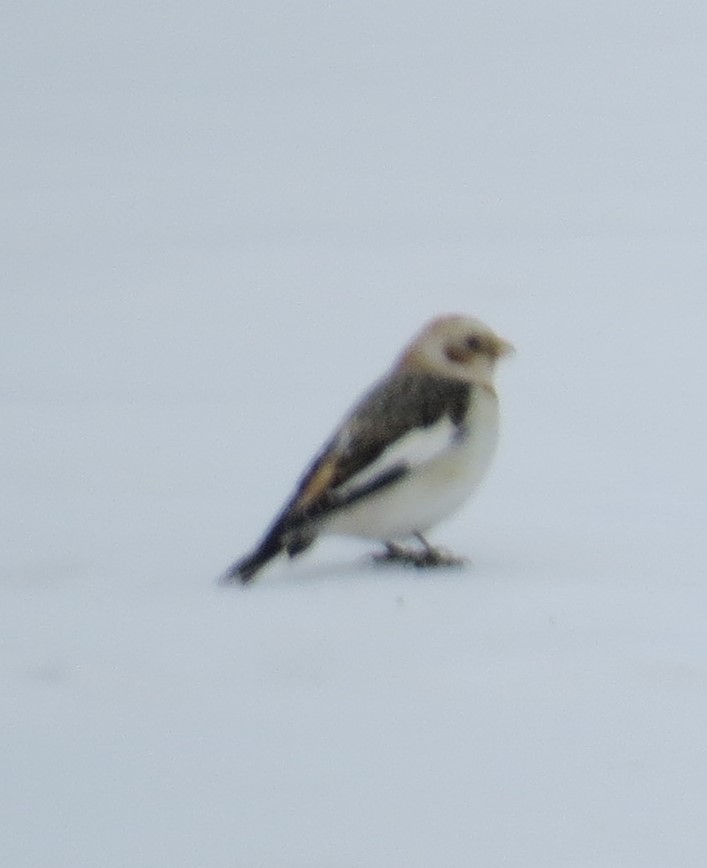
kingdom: Animalia
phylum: Chordata
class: Aves
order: Passeriformes
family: Calcariidae
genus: Plectrophenax
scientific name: Plectrophenax nivalis
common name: Snow bunting
